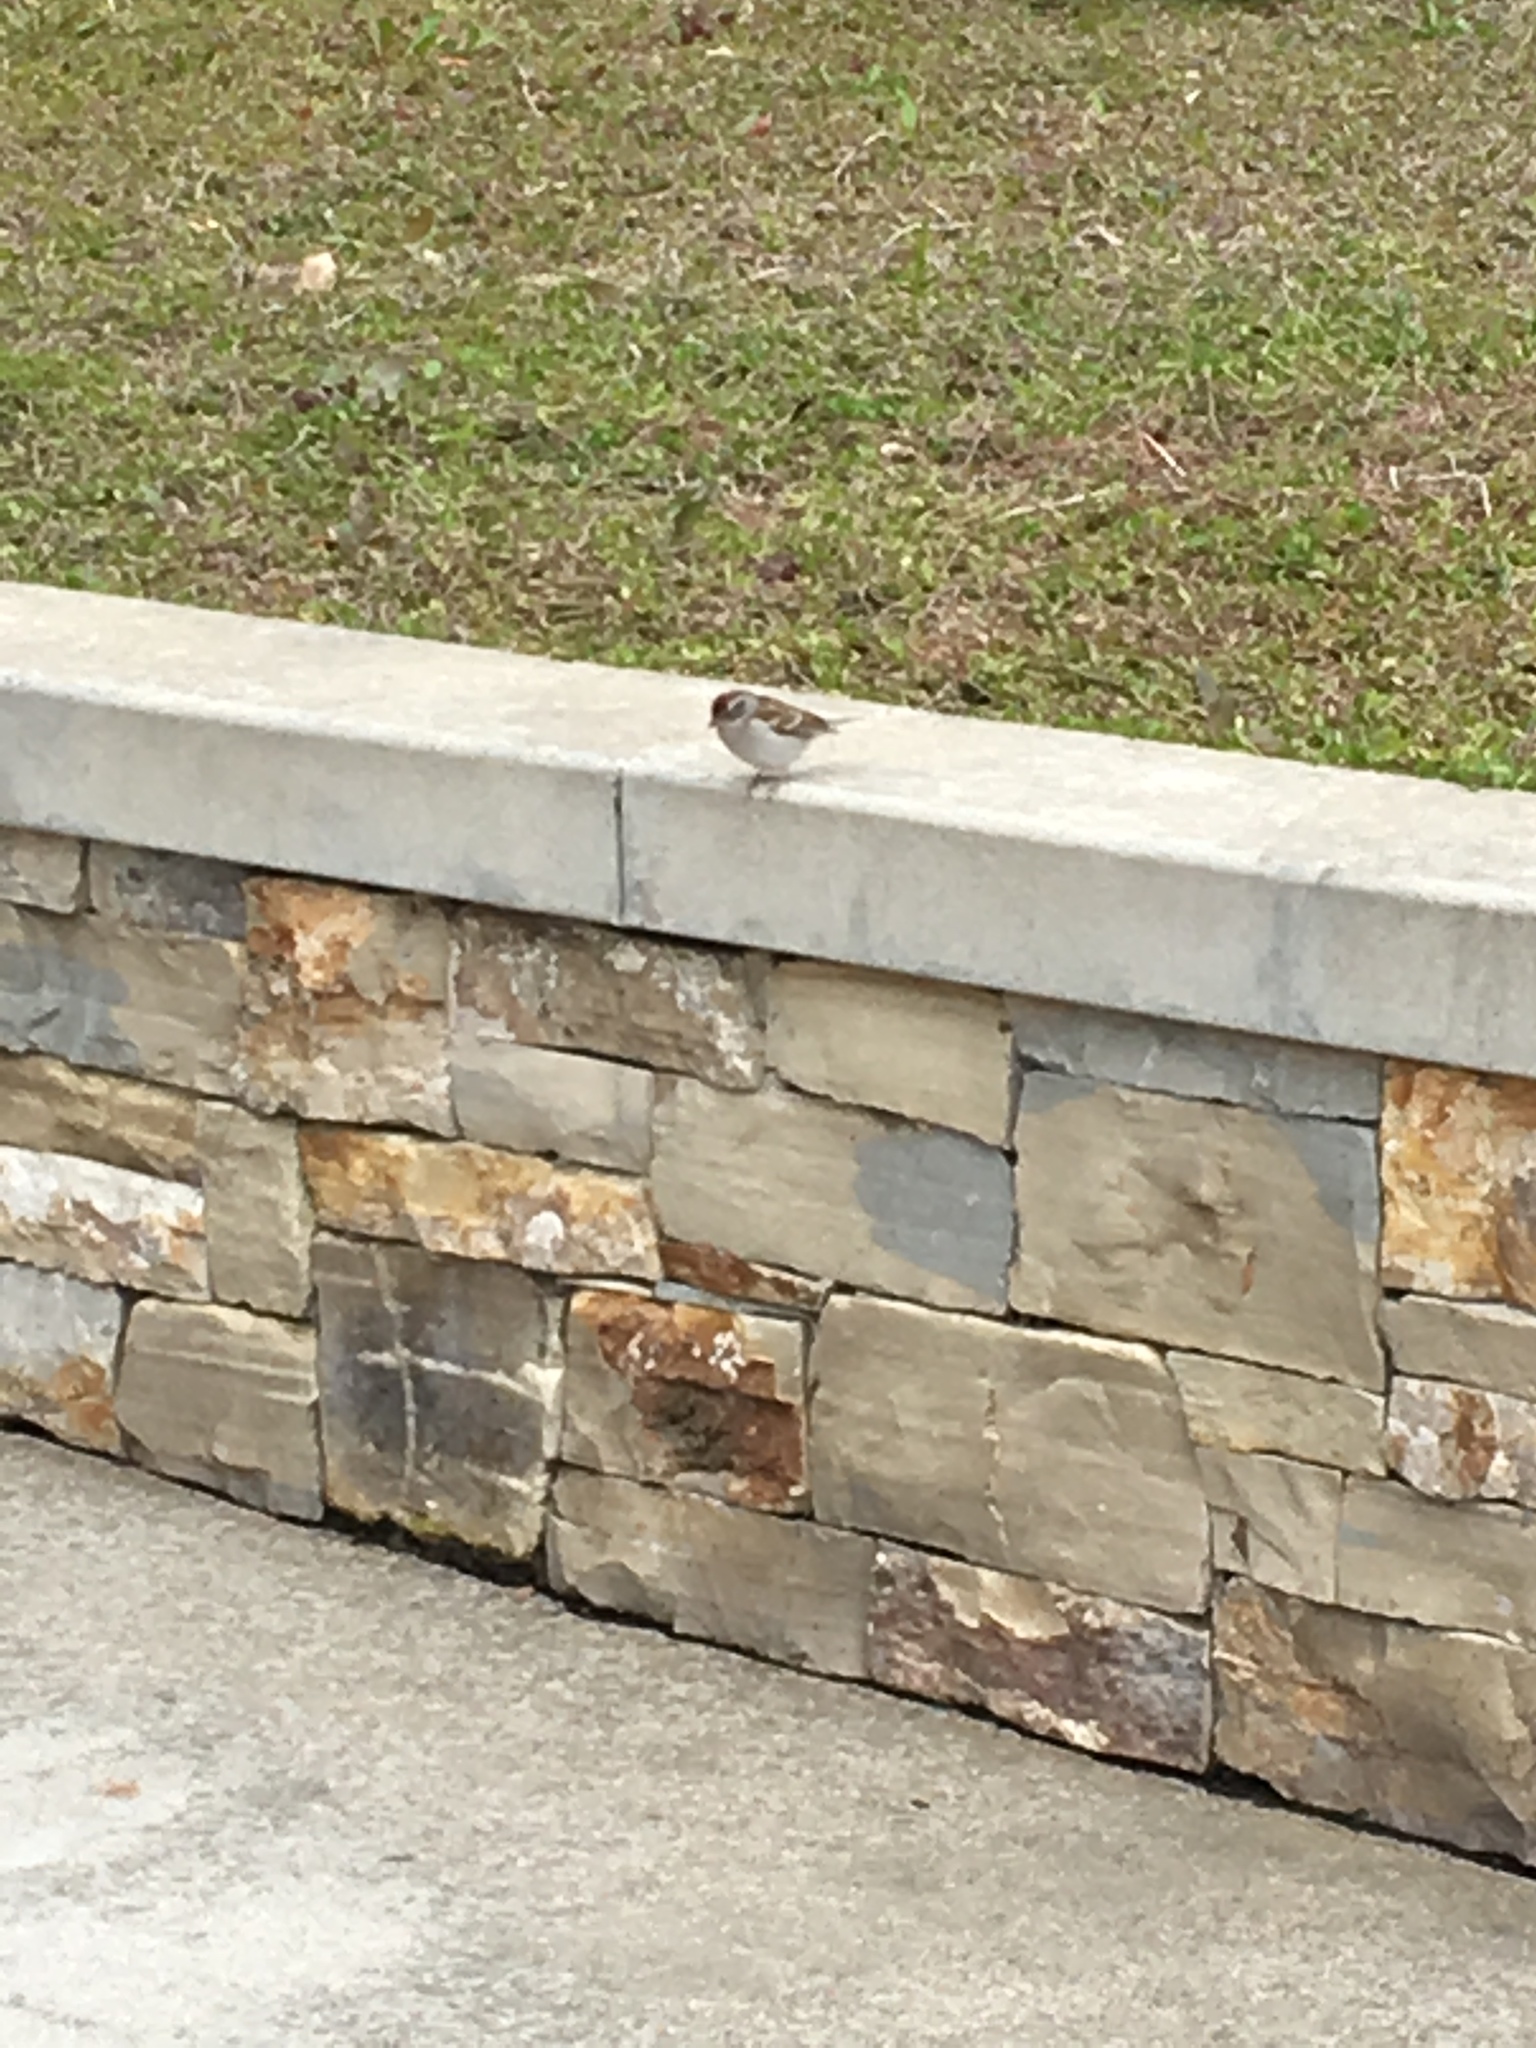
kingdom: Animalia
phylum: Chordata
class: Aves
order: Passeriformes
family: Passerellidae
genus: Spizella
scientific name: Spizella passerina
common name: Chipping sparrow
